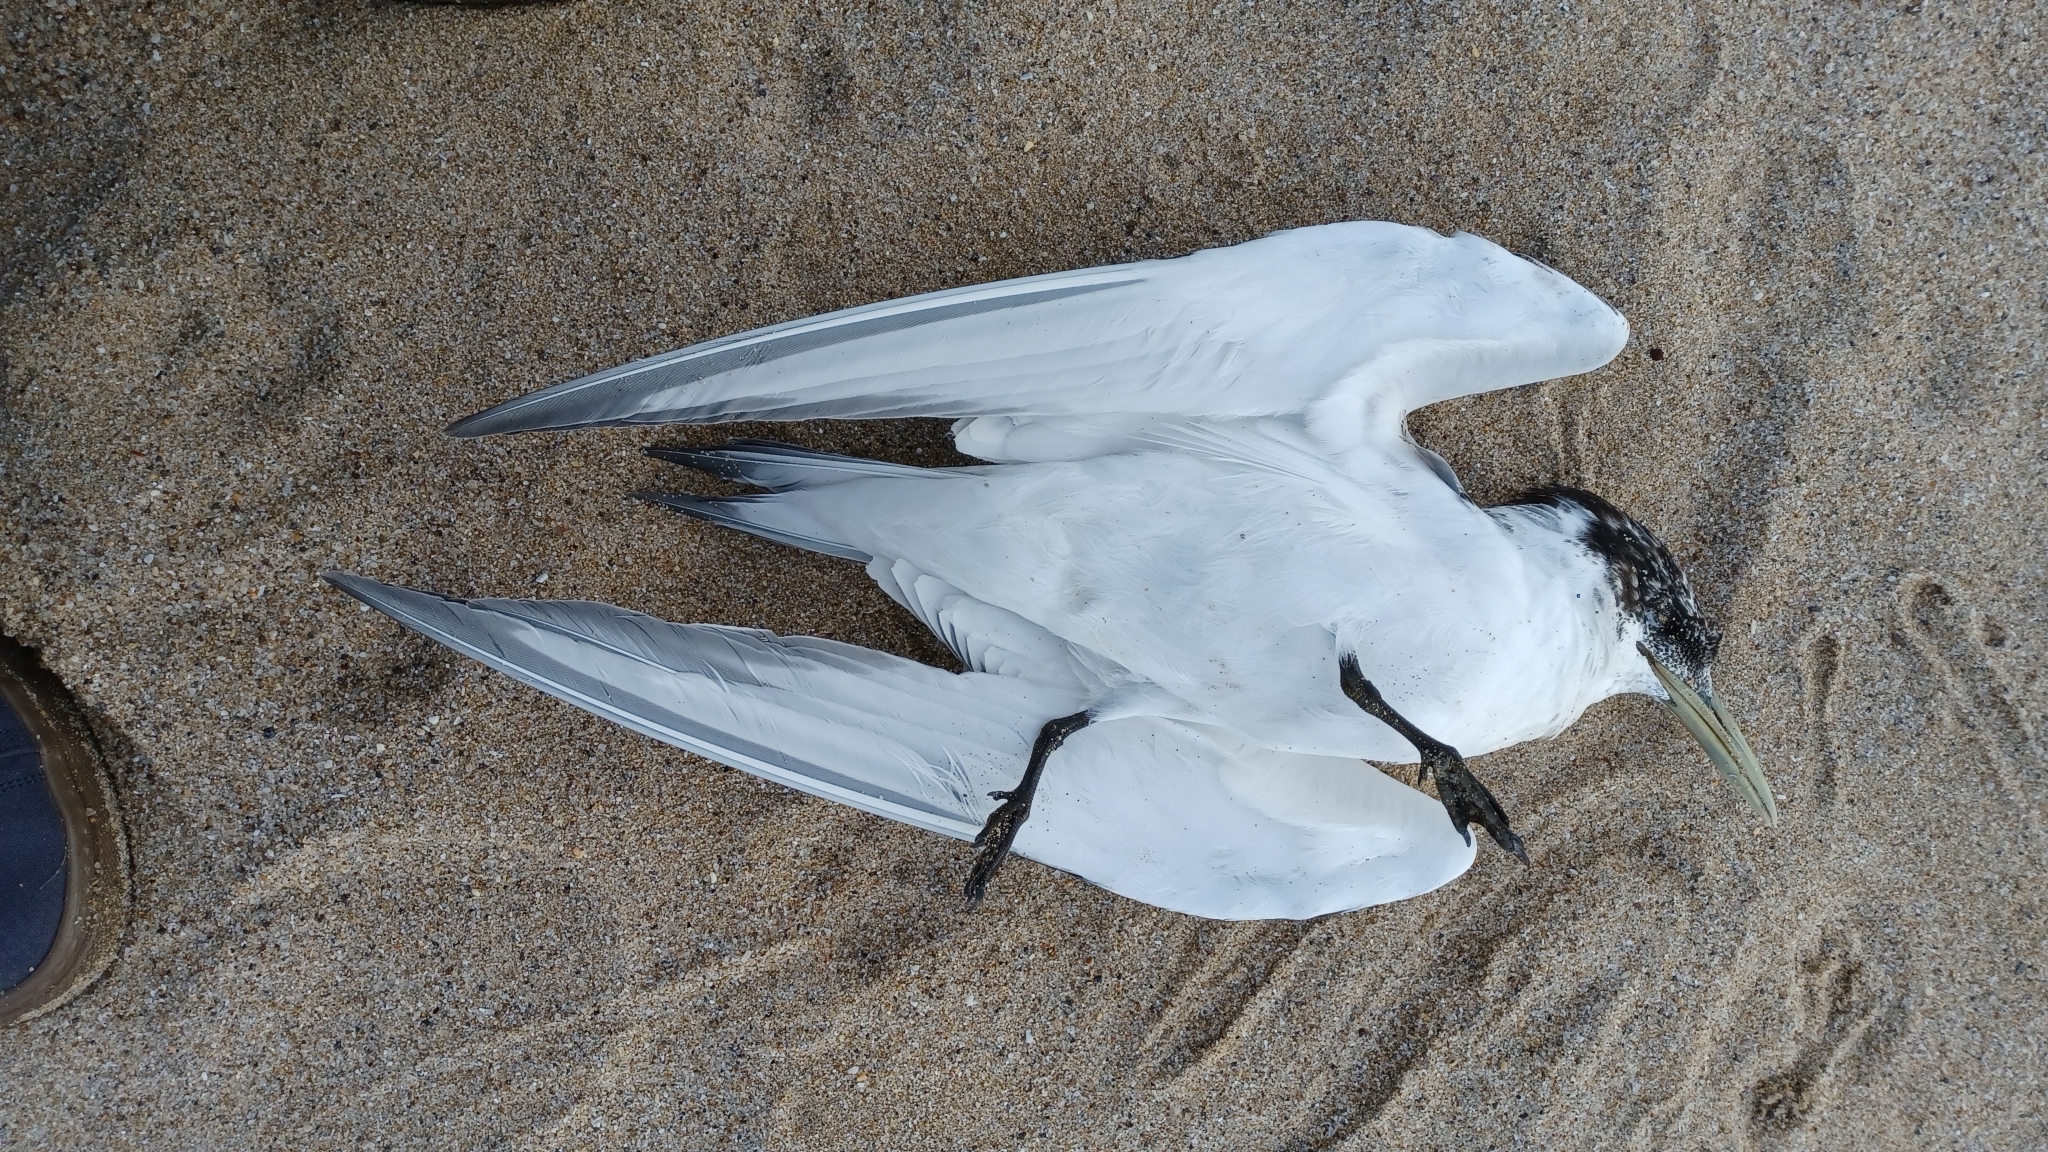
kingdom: Animalia
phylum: Chordata
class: Aves
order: Charadriiformes
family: Laridae
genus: Thalasseus
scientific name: Thalasseus bergii
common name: Greater crested tern
